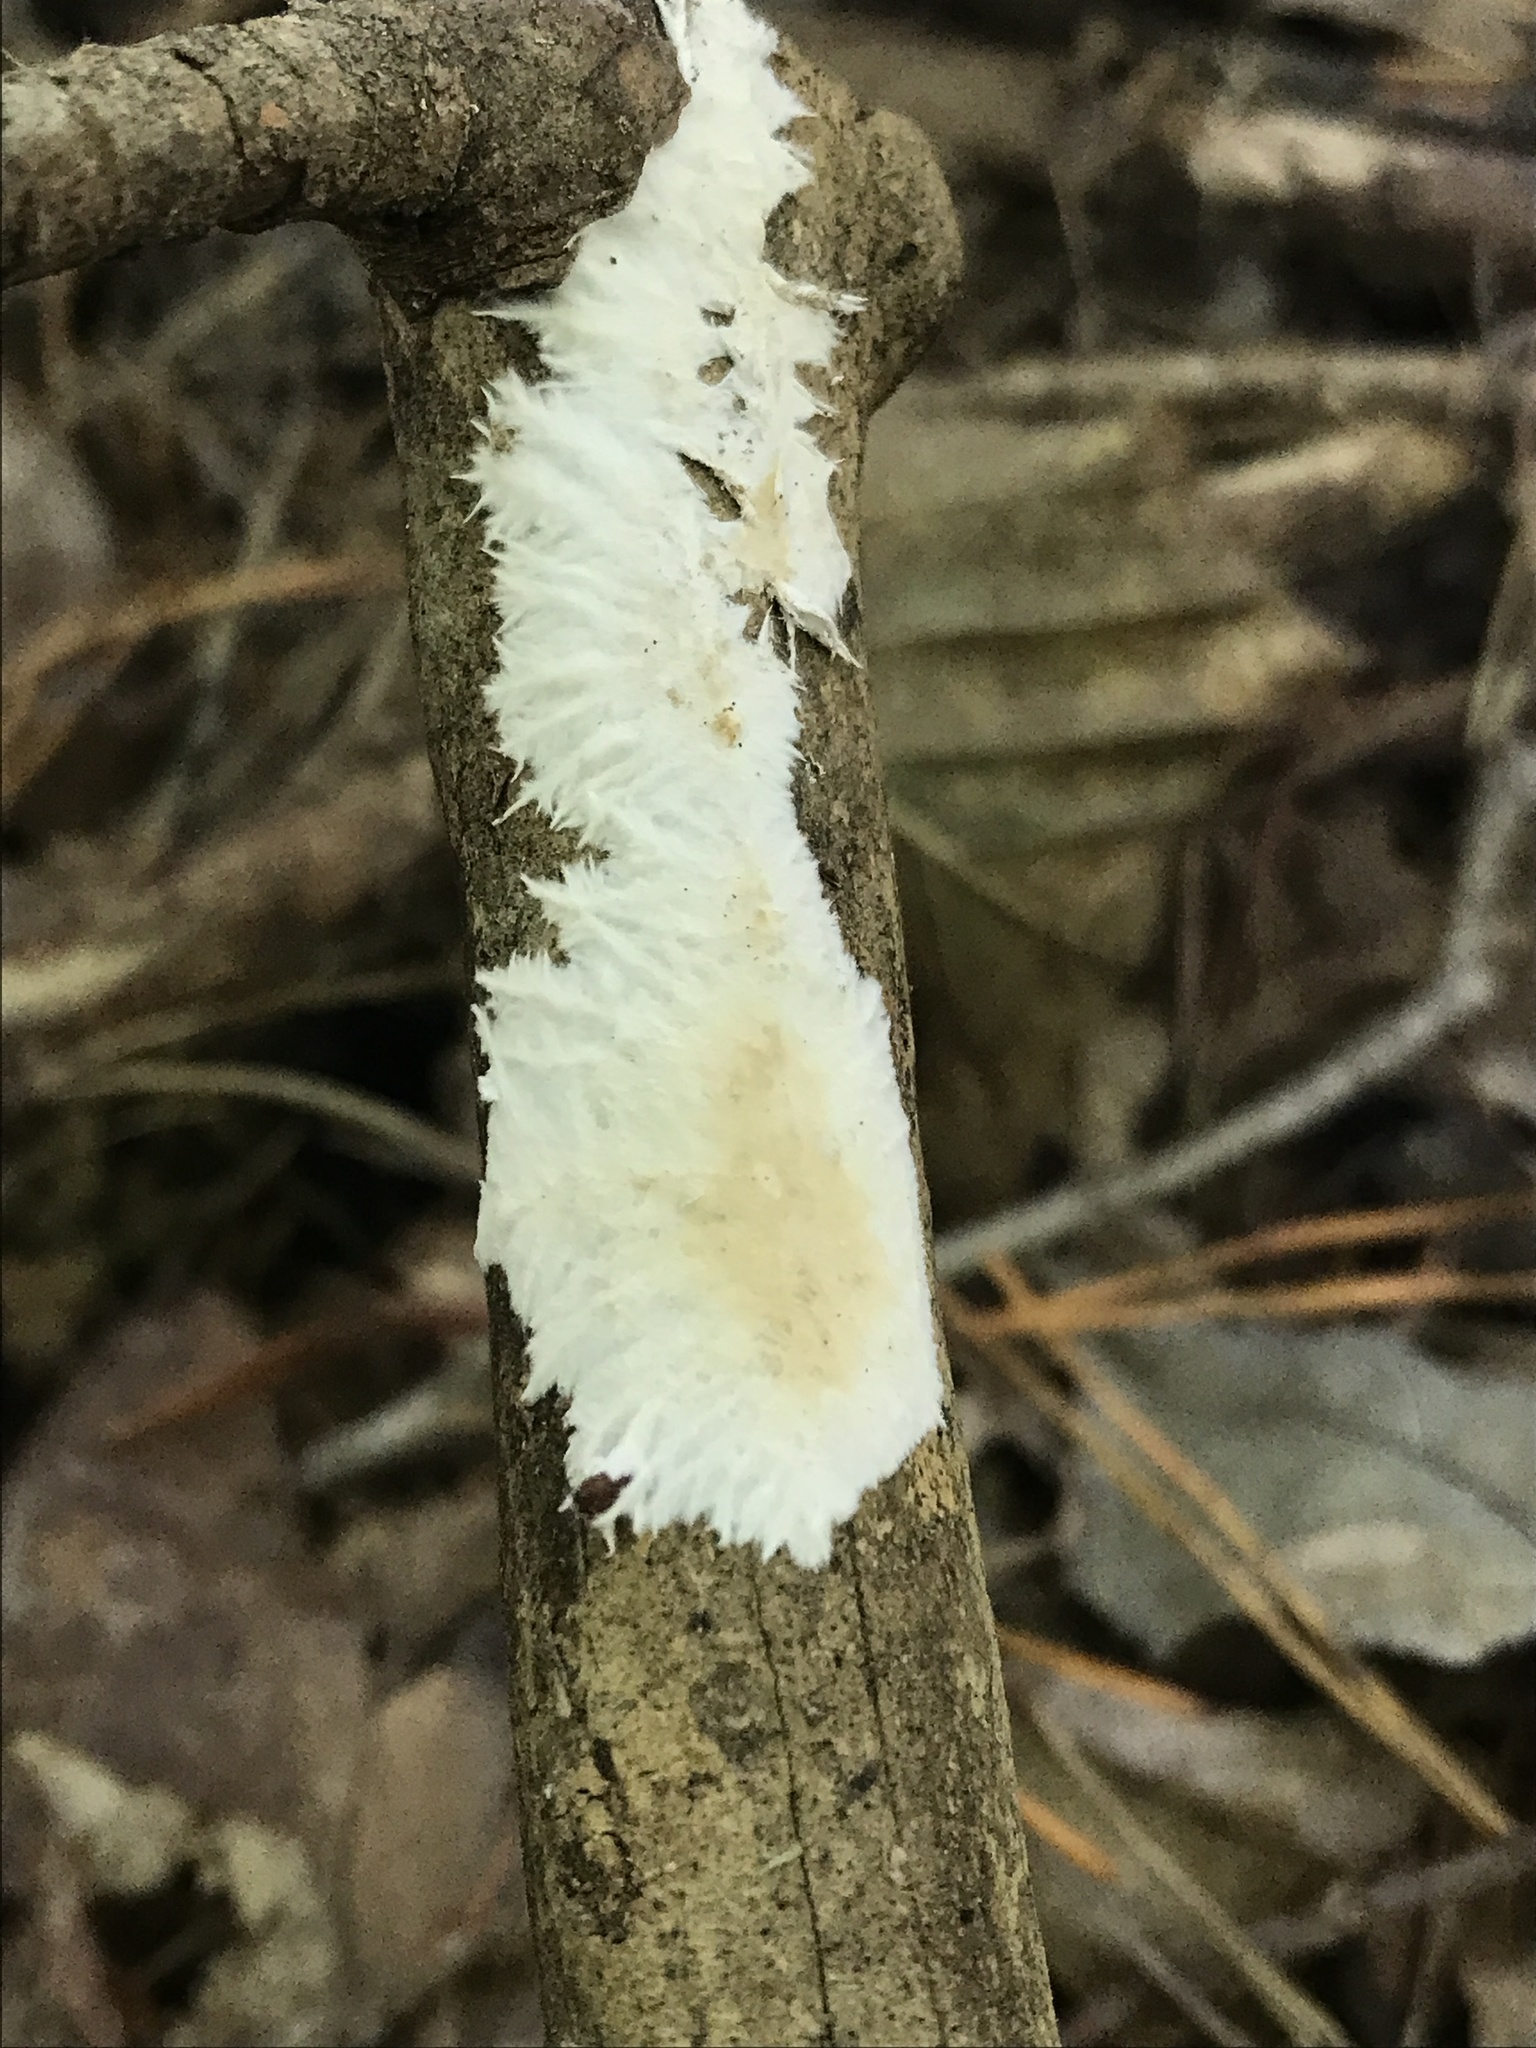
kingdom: Fungi
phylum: Basidiomycota
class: Agaricomycetes
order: Polyporales
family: Steccherinaceae
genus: Junghuhnia
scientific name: Junghuhnia nitida
